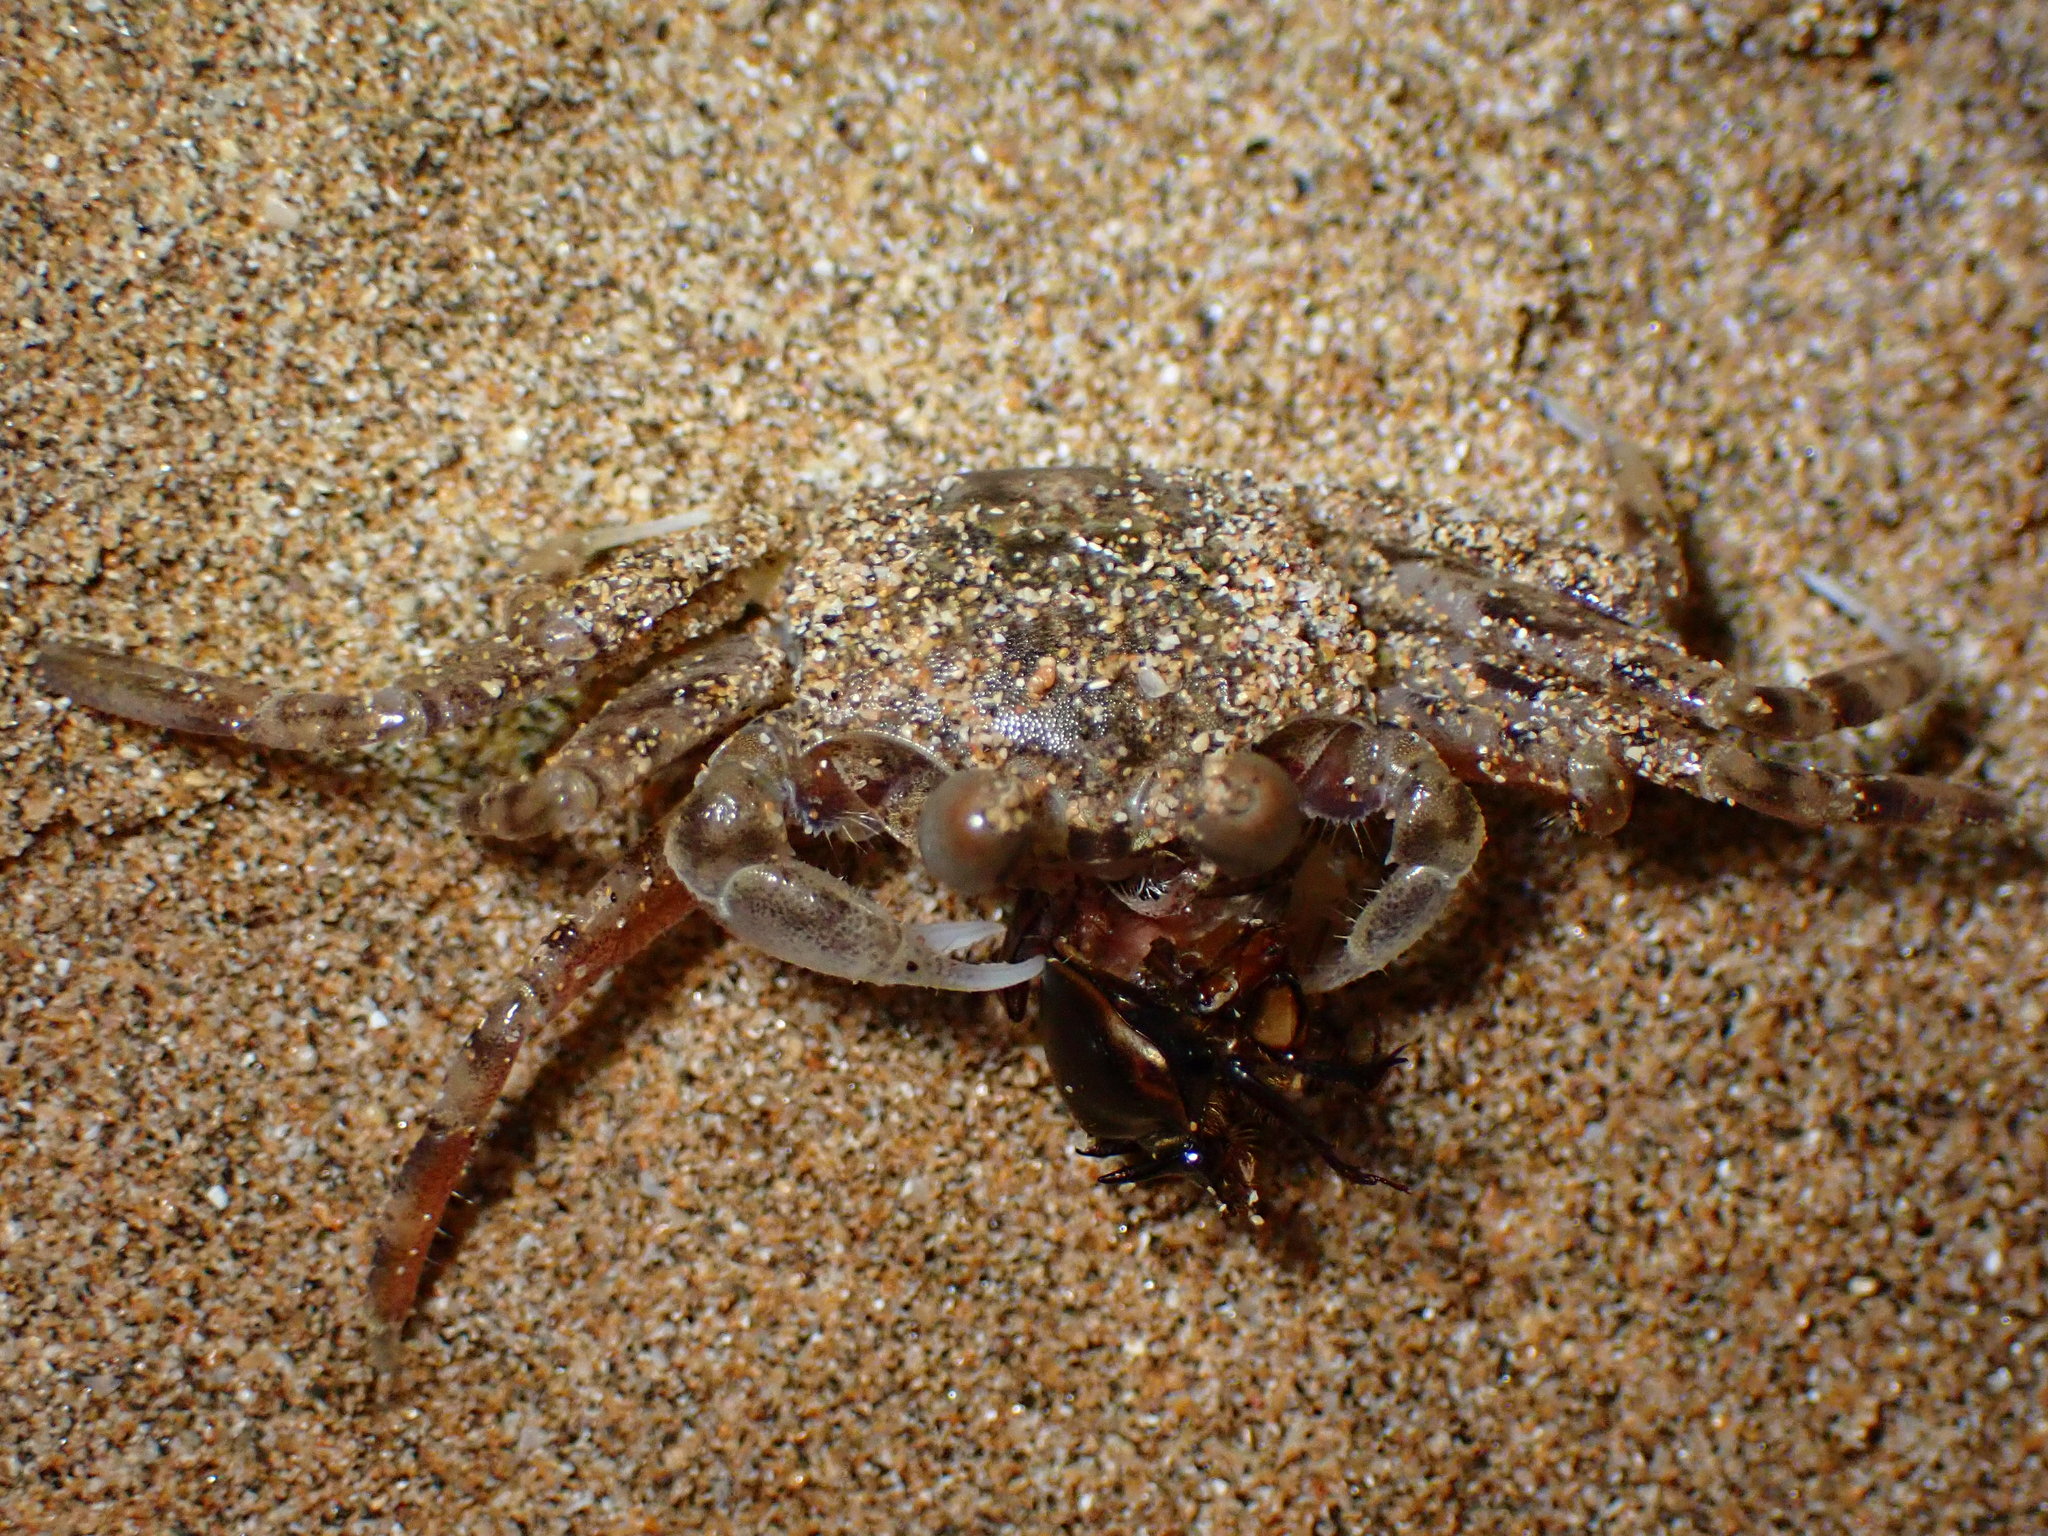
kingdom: Animalia
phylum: Arthropoda
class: Malacostraca
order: Decapoda
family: Ocypodidae
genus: Ocypode
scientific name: Ocypode pallidula
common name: Pallid ghost crab
